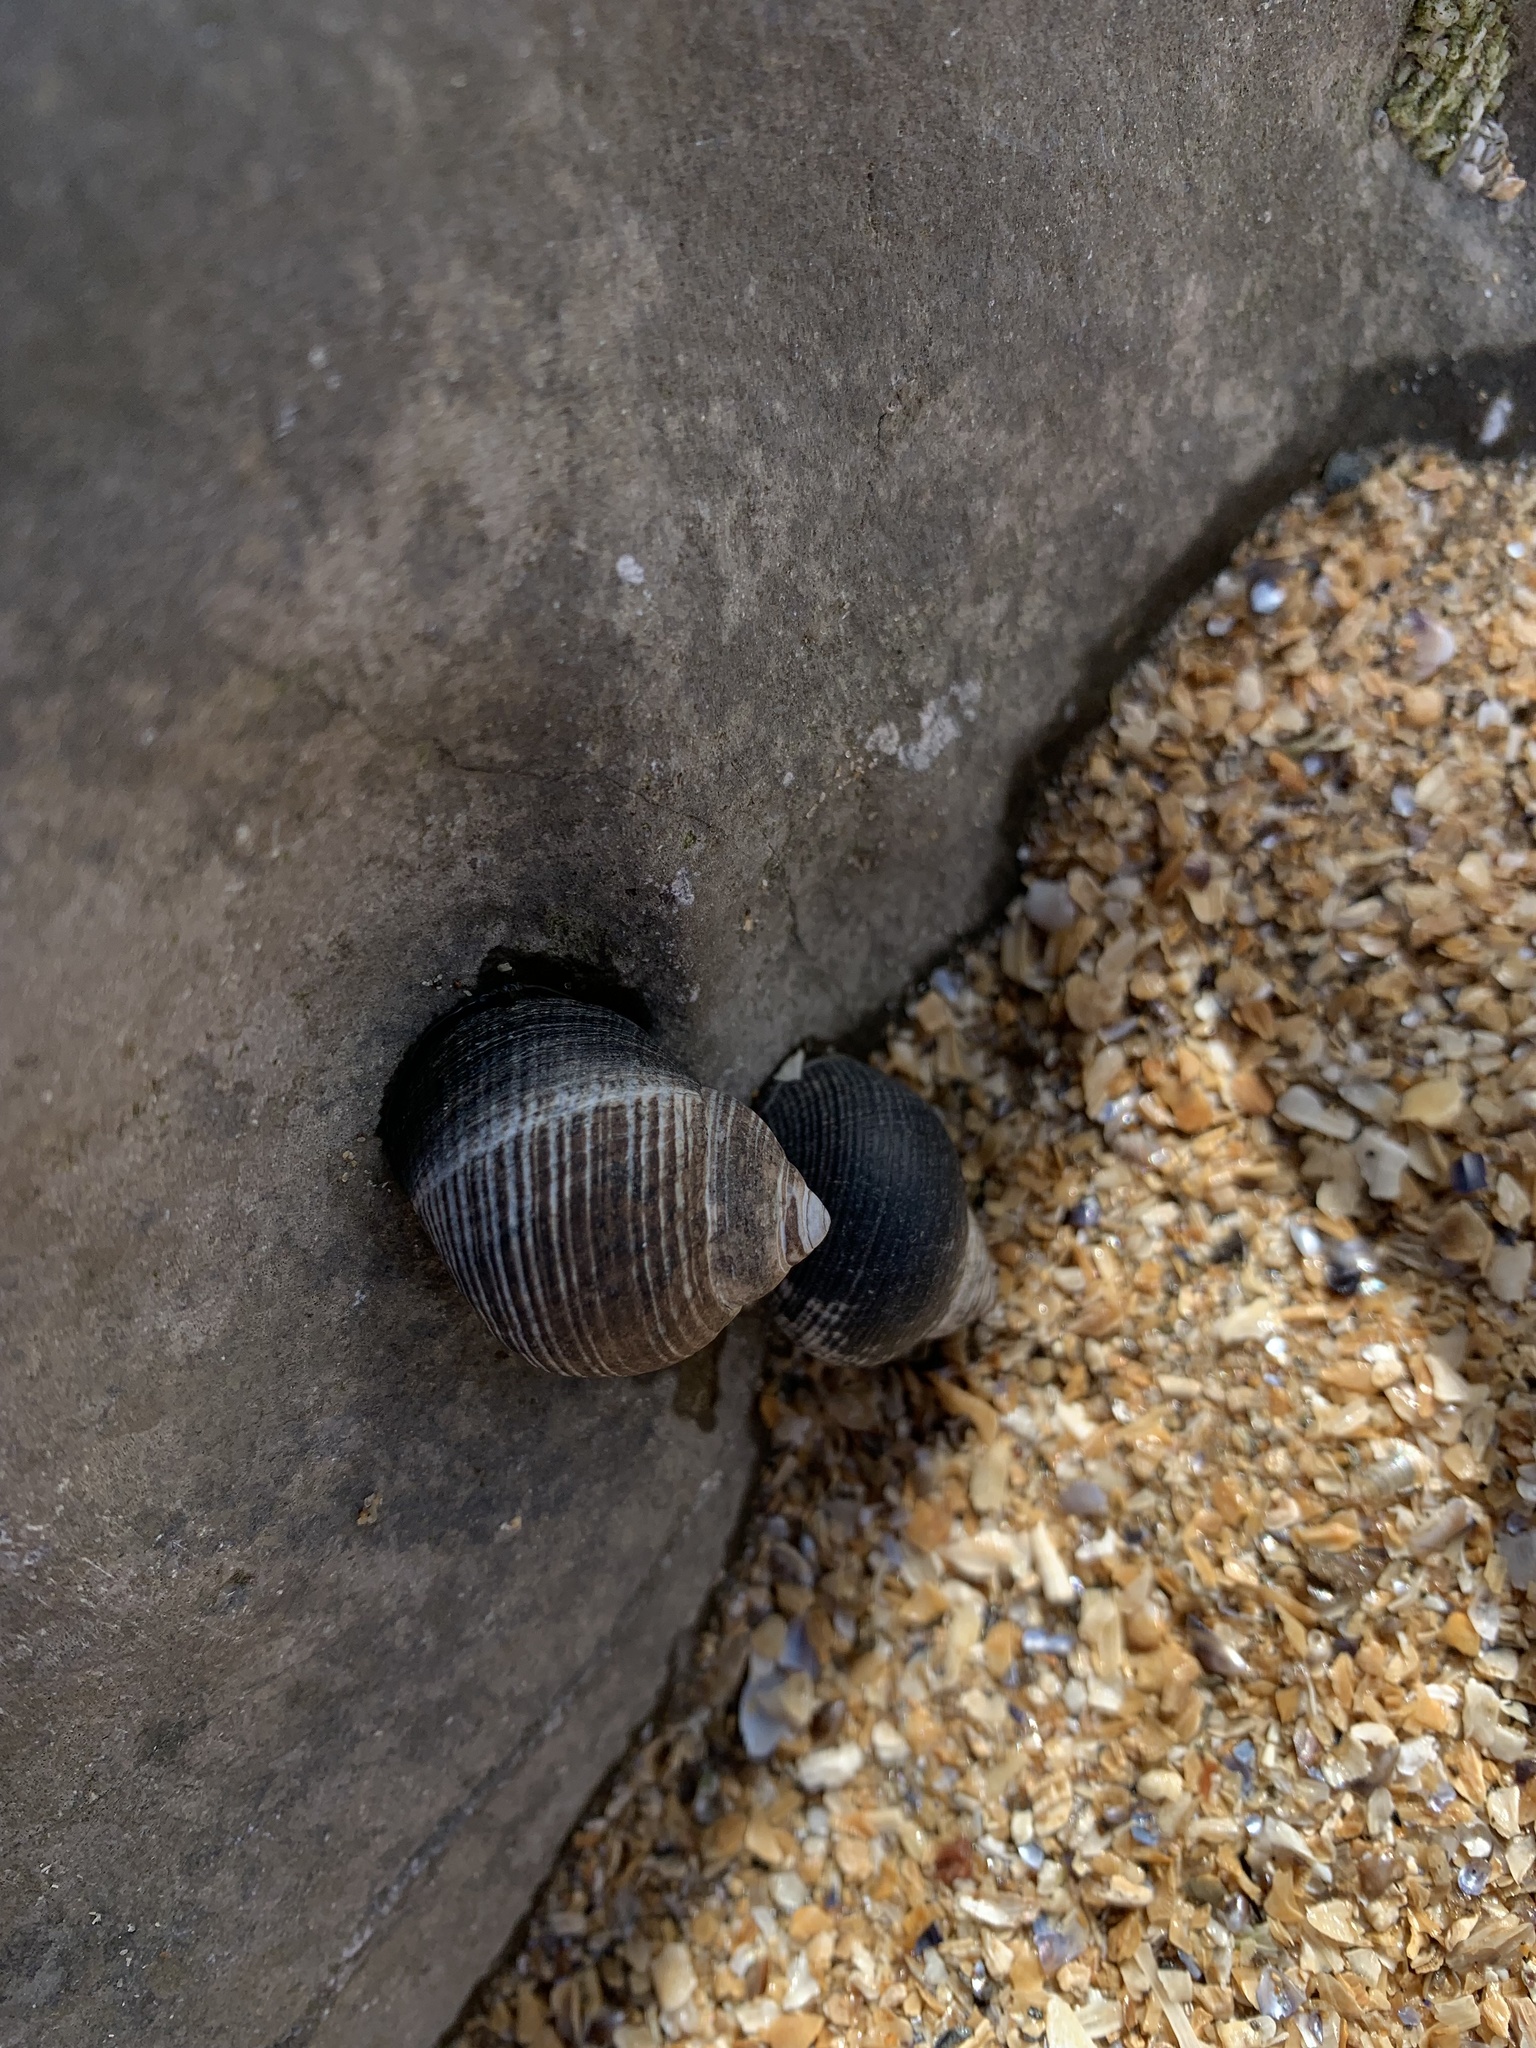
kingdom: Animalia
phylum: Mollusca
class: Gastropoda
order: Littorinimorpha
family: Littorinidae
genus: Littorina
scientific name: Littorina littorea
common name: Common periwinkle
